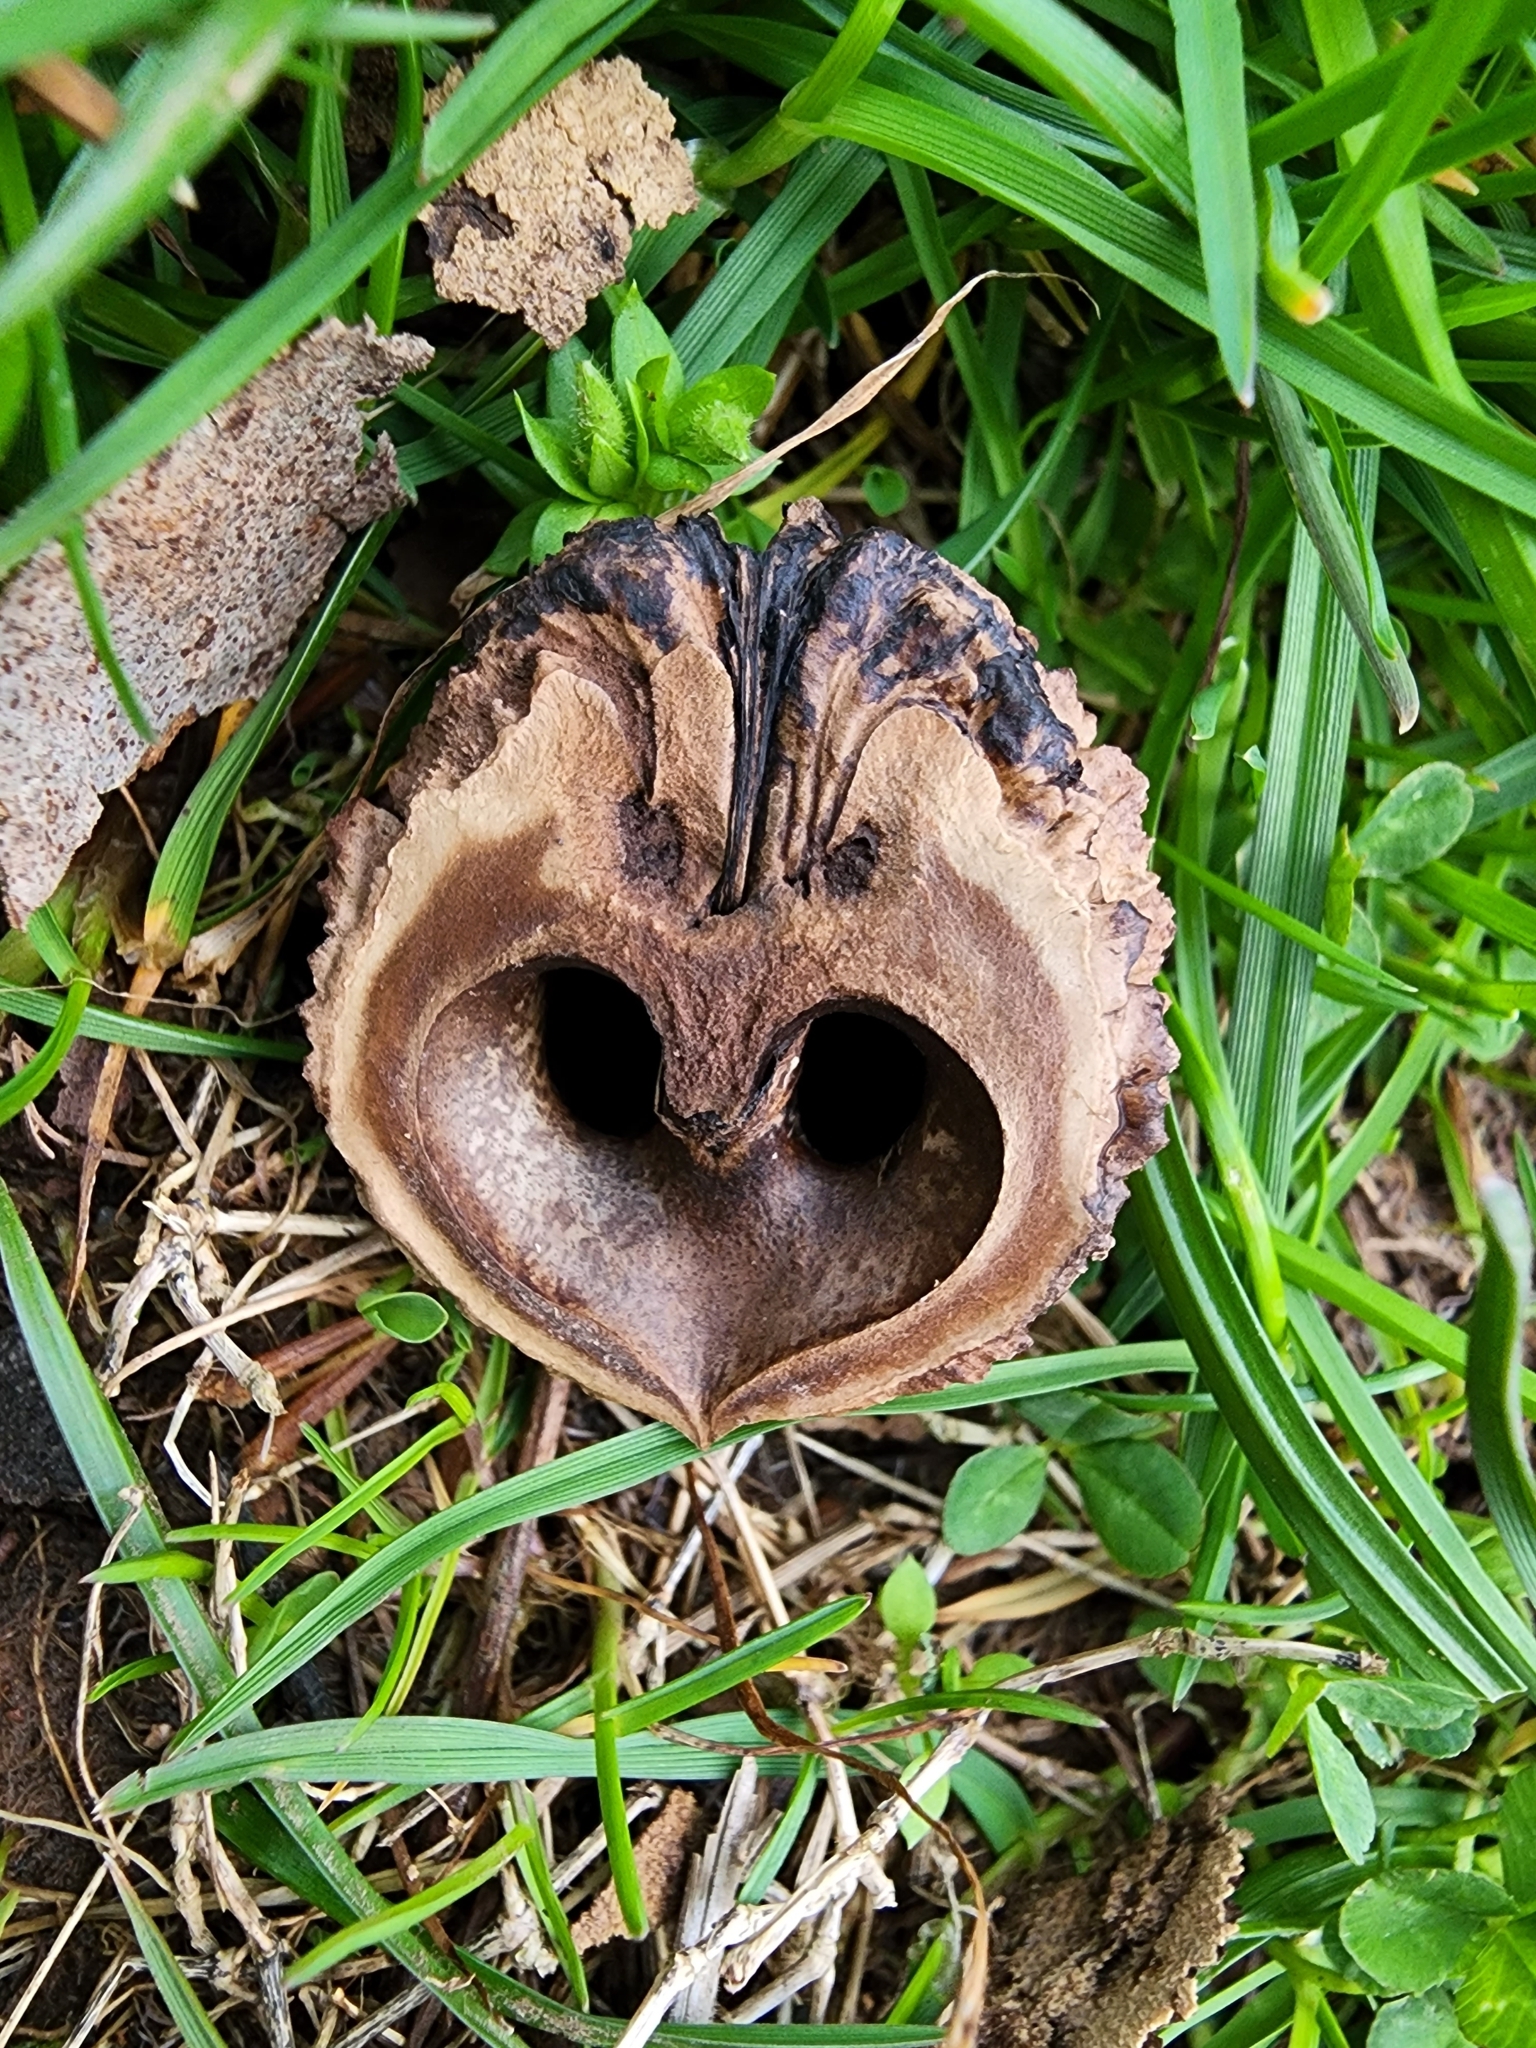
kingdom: Plantae
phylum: Tracheophyta
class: Magnoliopsida
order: Fagales
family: Juglandaceae
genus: Juglans
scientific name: Juglans nigra
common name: Black walnut
